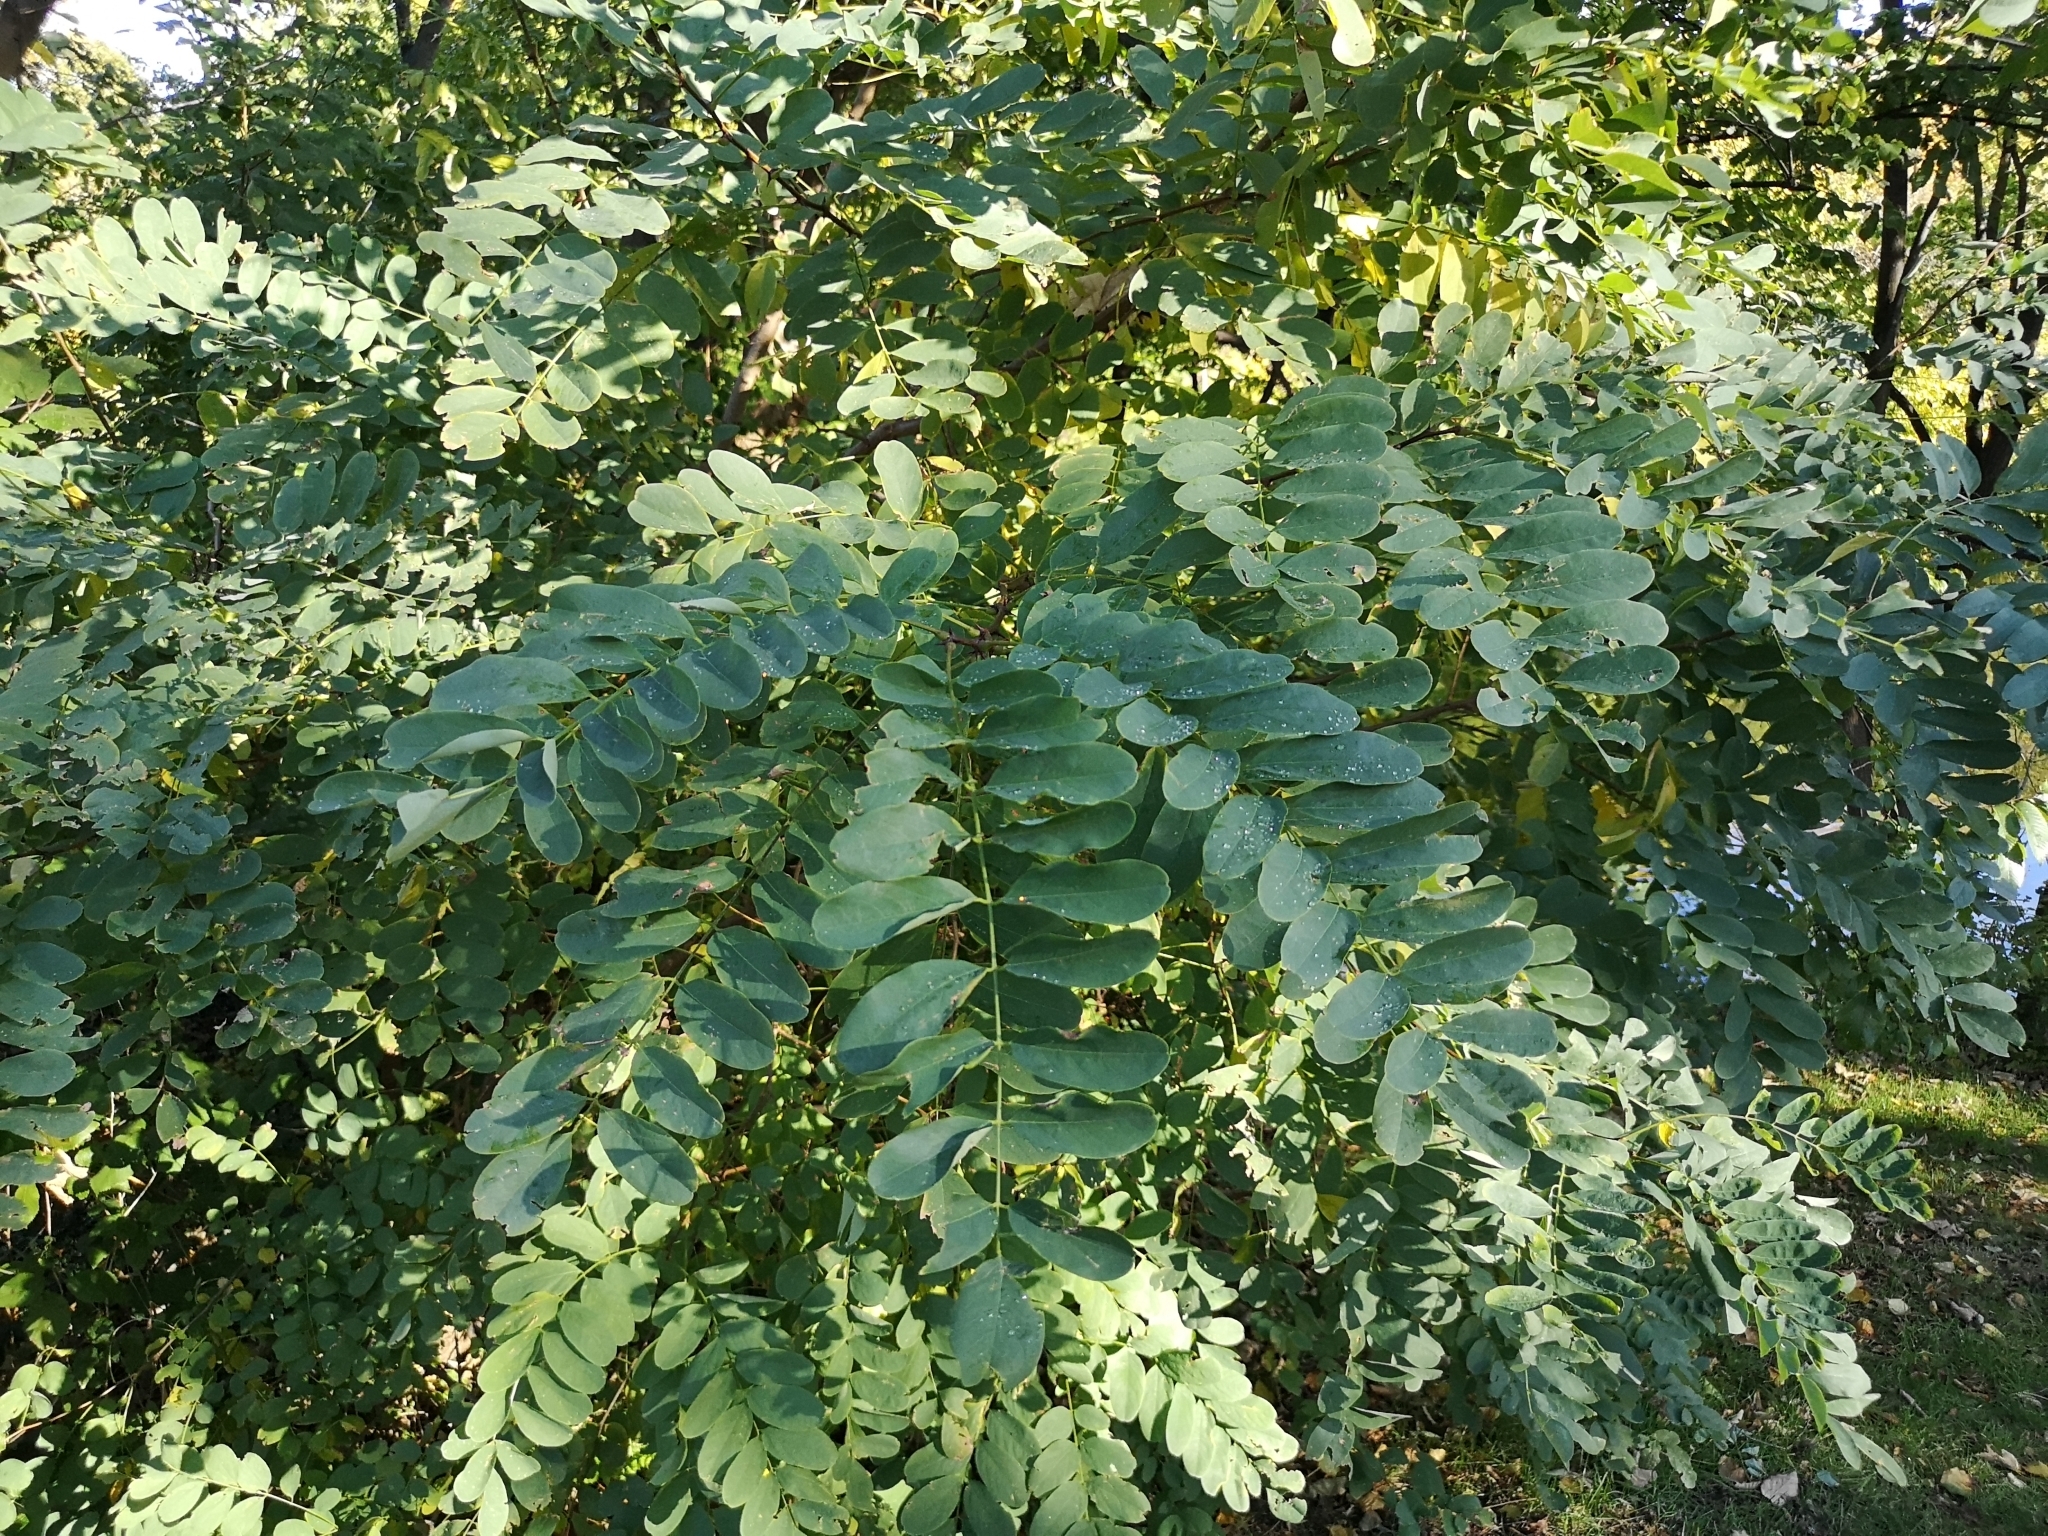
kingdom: Plantae
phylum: Tracheophyta
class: Magnoliopsida
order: Fabales
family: Fabaceae
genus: Robinia
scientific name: Robinia pseudoacacia
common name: Black locust
